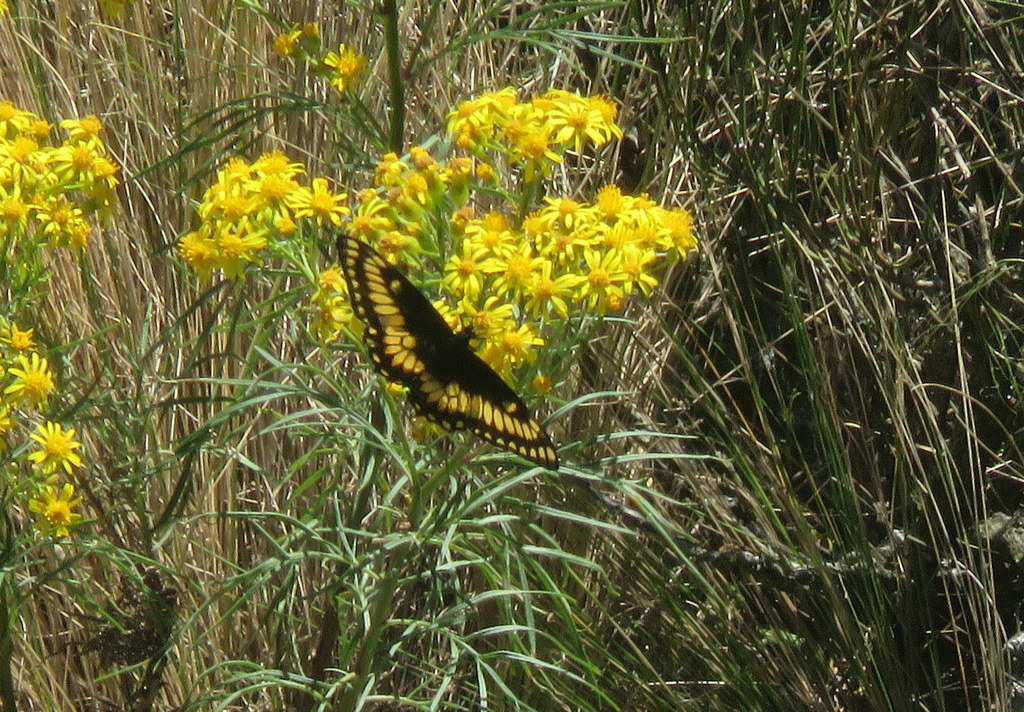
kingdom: Animalia
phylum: Arthropoda
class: Insecta
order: Lepidoptera
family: Papilionidae
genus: Papilio
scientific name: Papilio hellanichus
